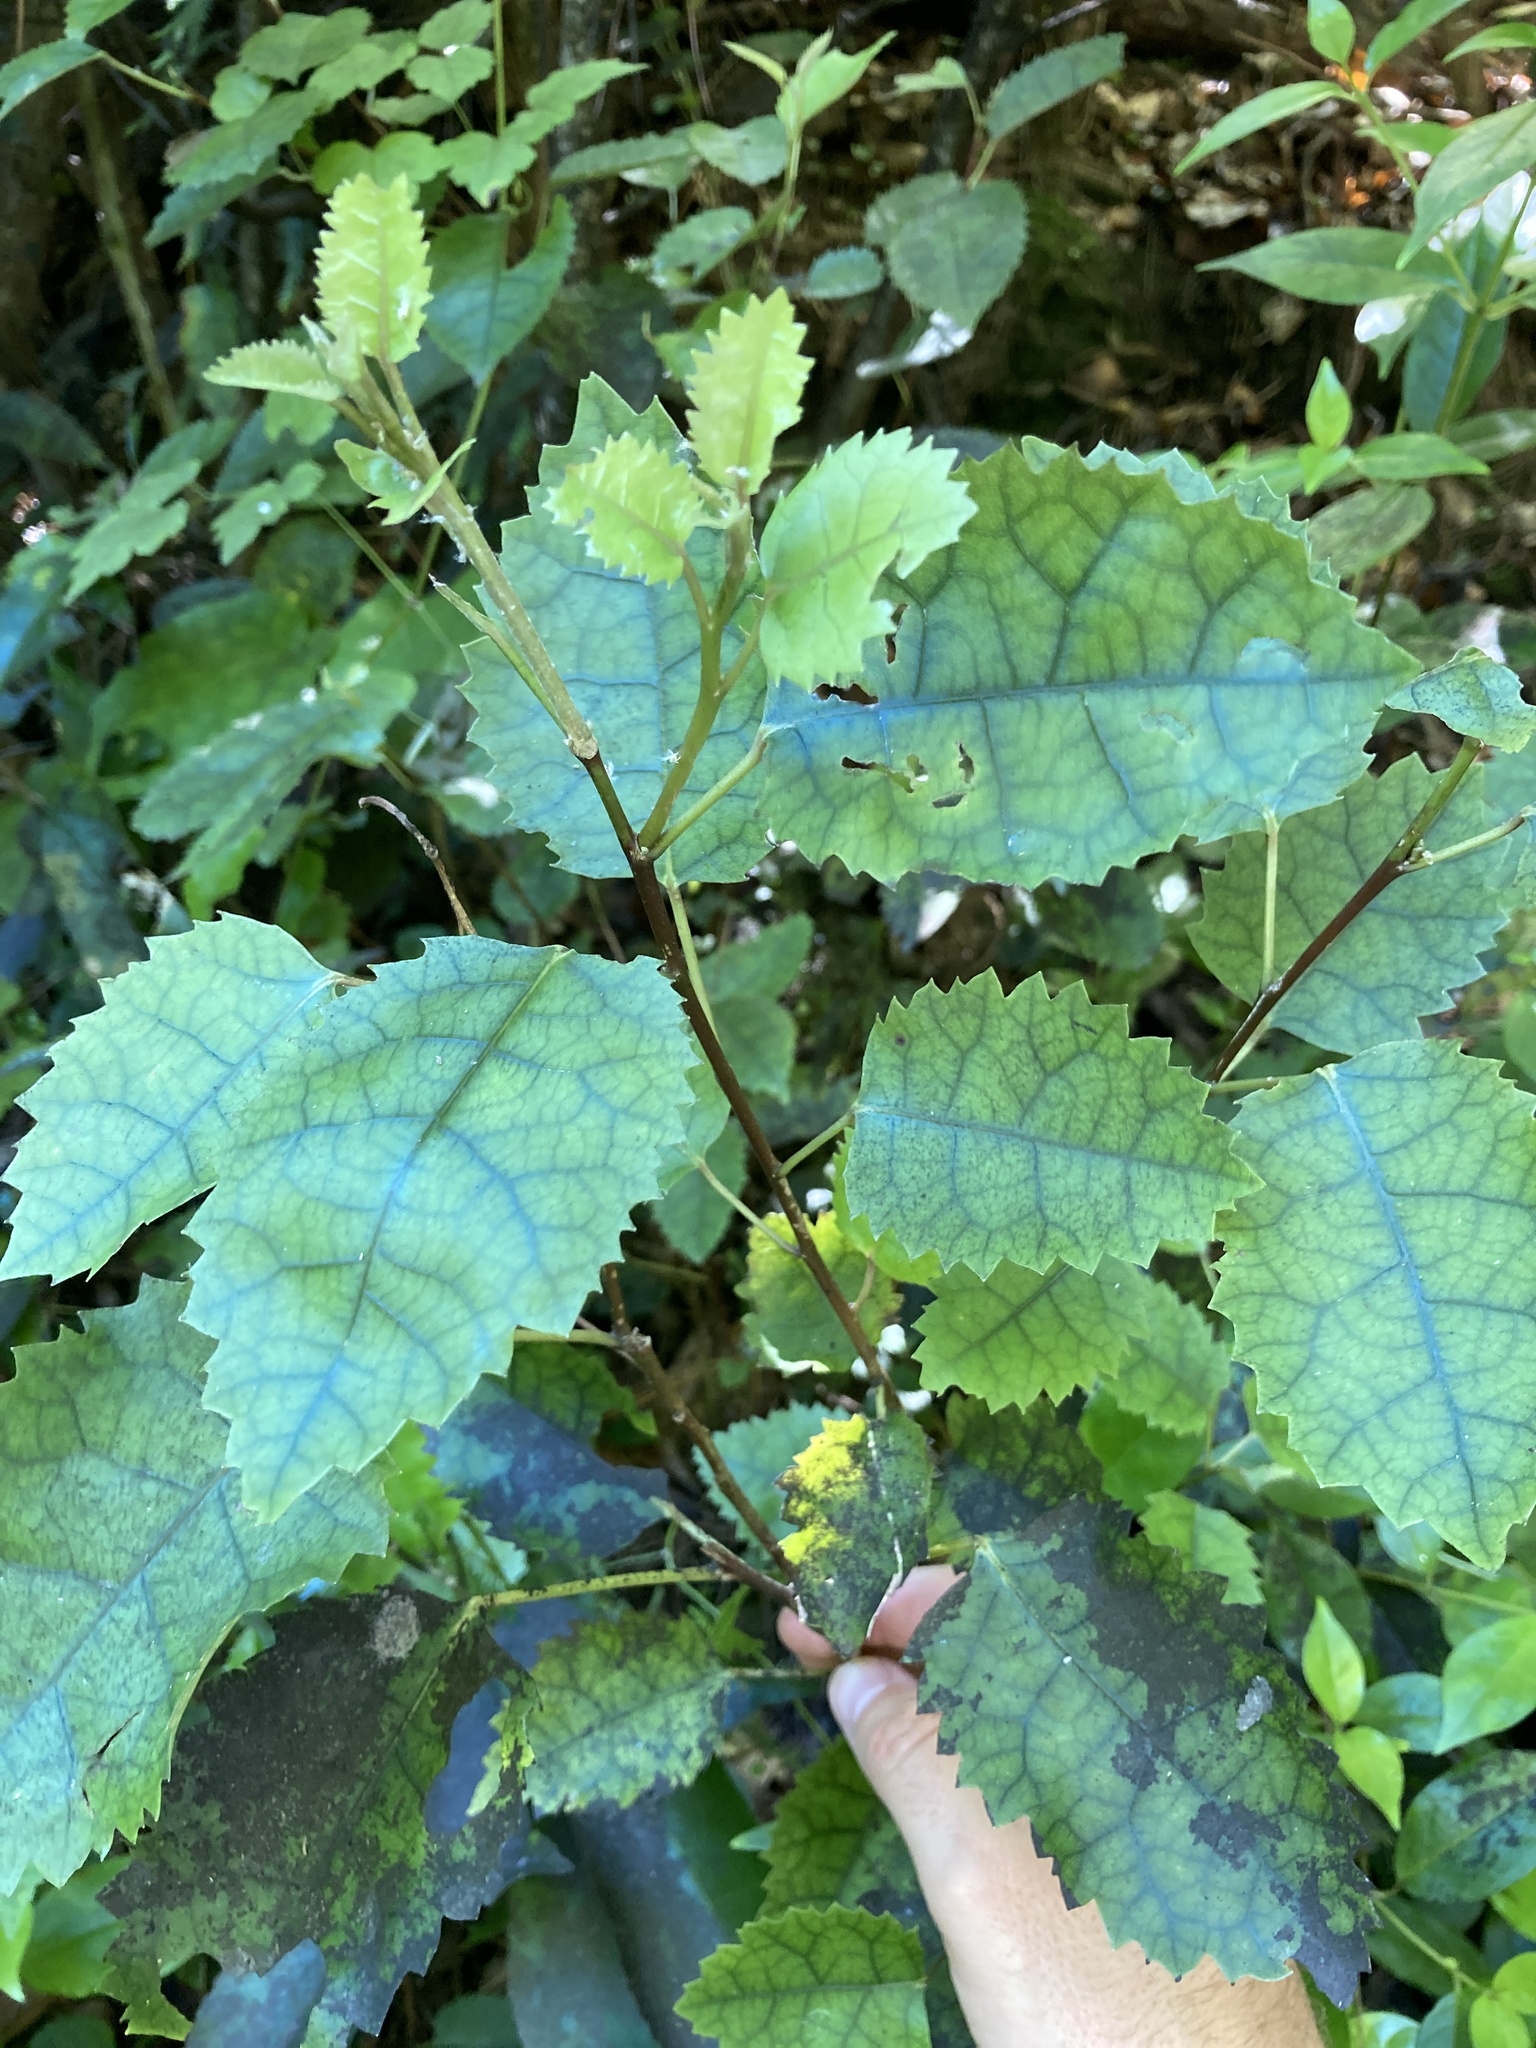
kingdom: Plantae
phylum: Tracheophyta
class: Magnoliopsida
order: Malvales
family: Malvaceae
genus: Hoheria
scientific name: Hoheria populnea
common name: Lacebark
